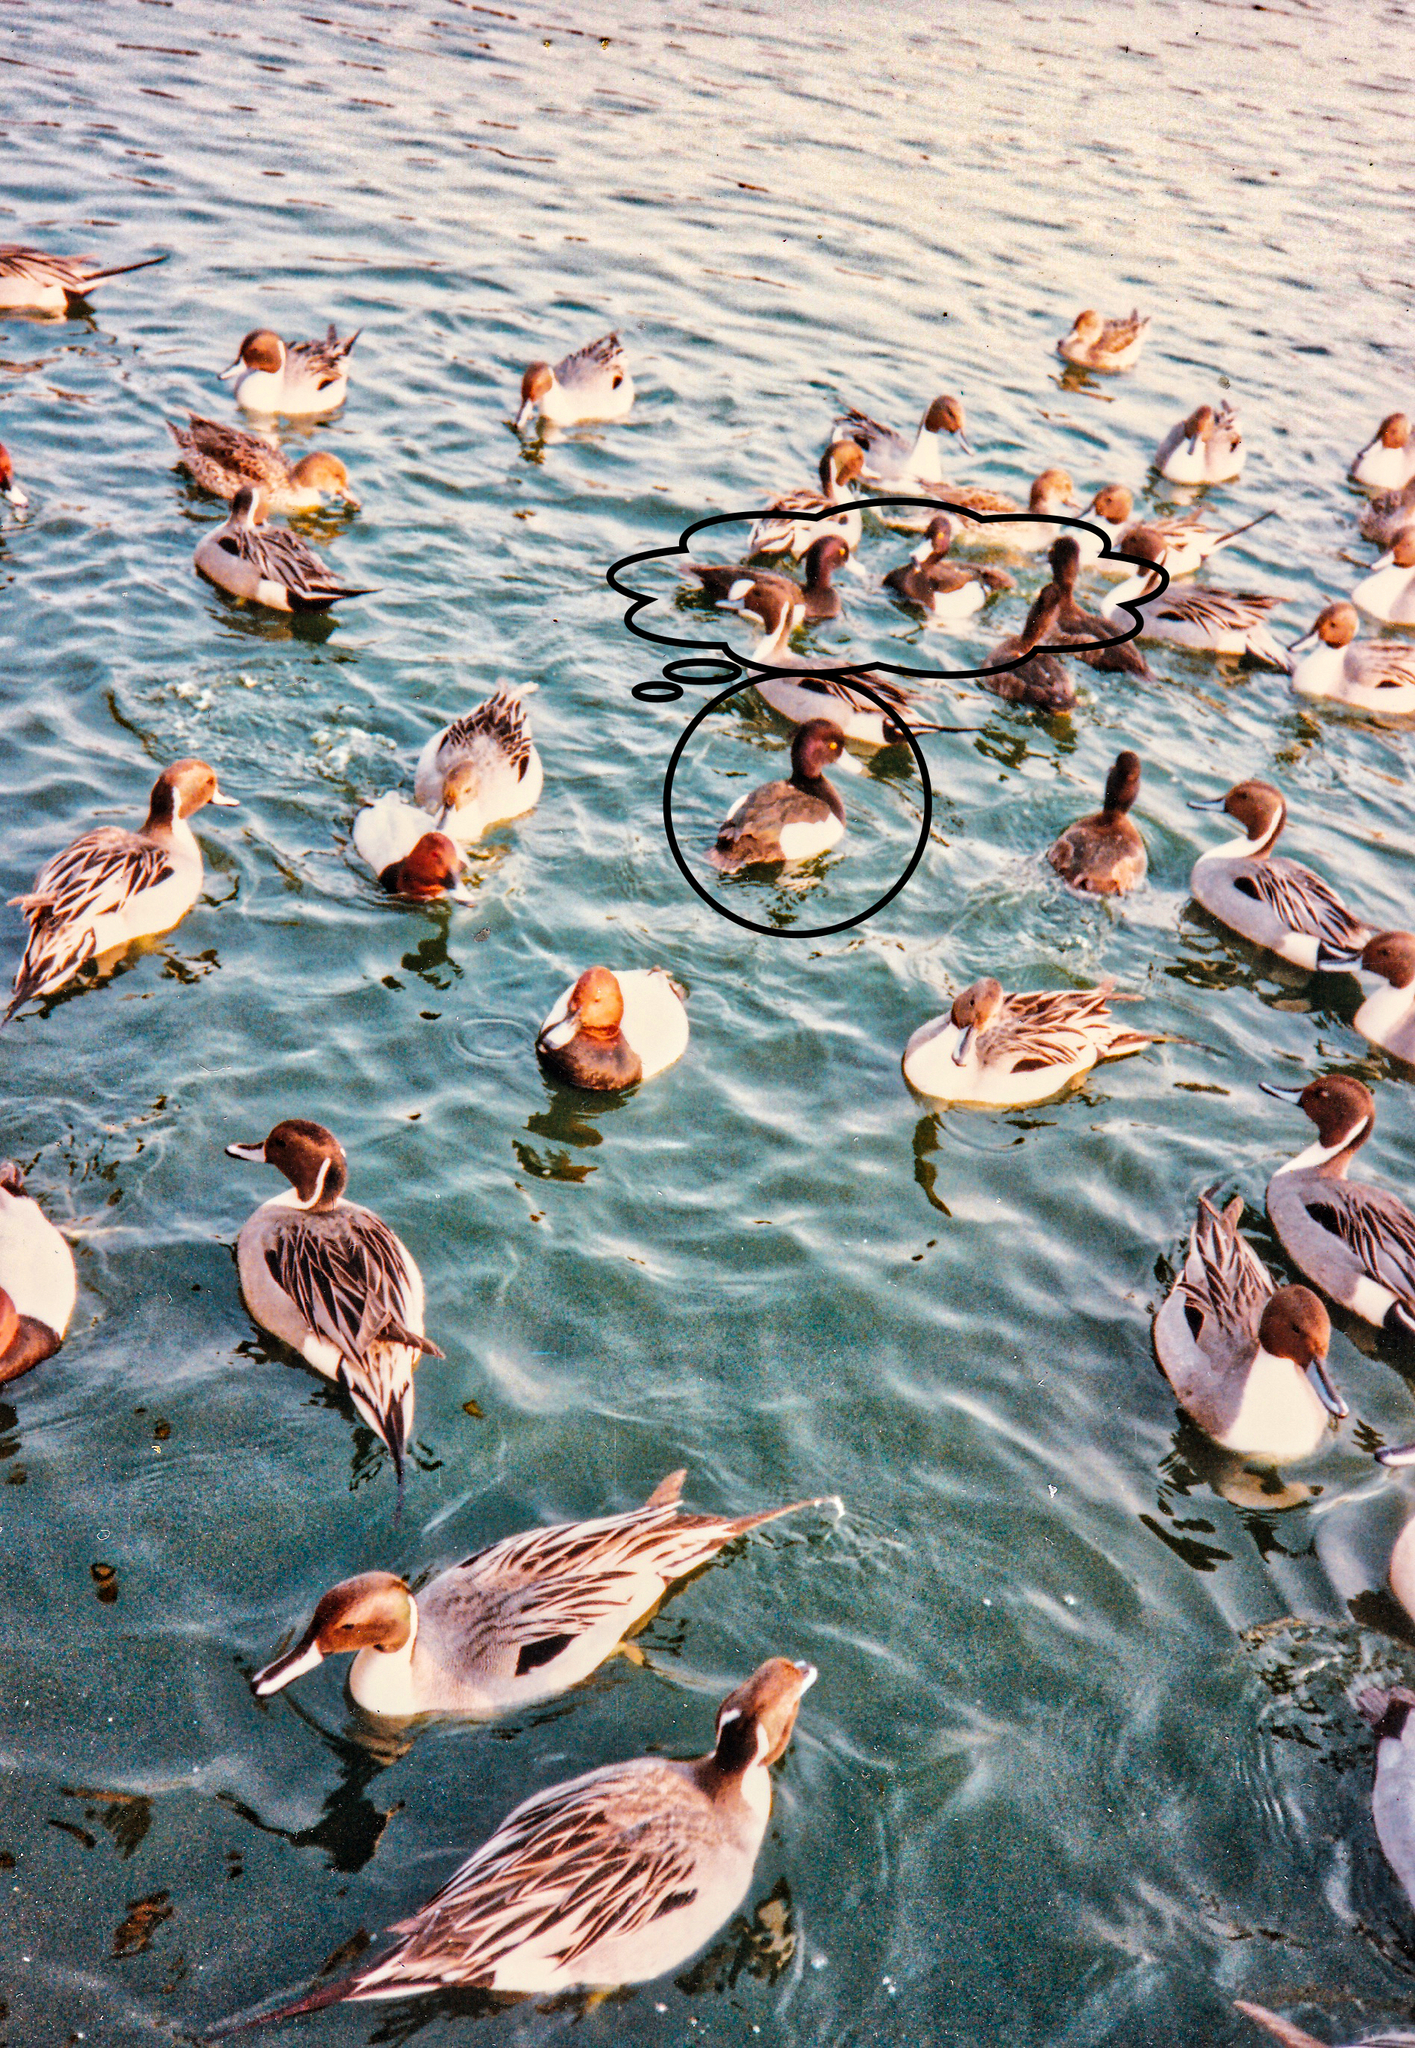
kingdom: Animalia
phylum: Chordata
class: Aves
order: Anseriformes
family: Anatidae
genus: Aythya
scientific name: Aythya fuligula
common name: Tufted duck
